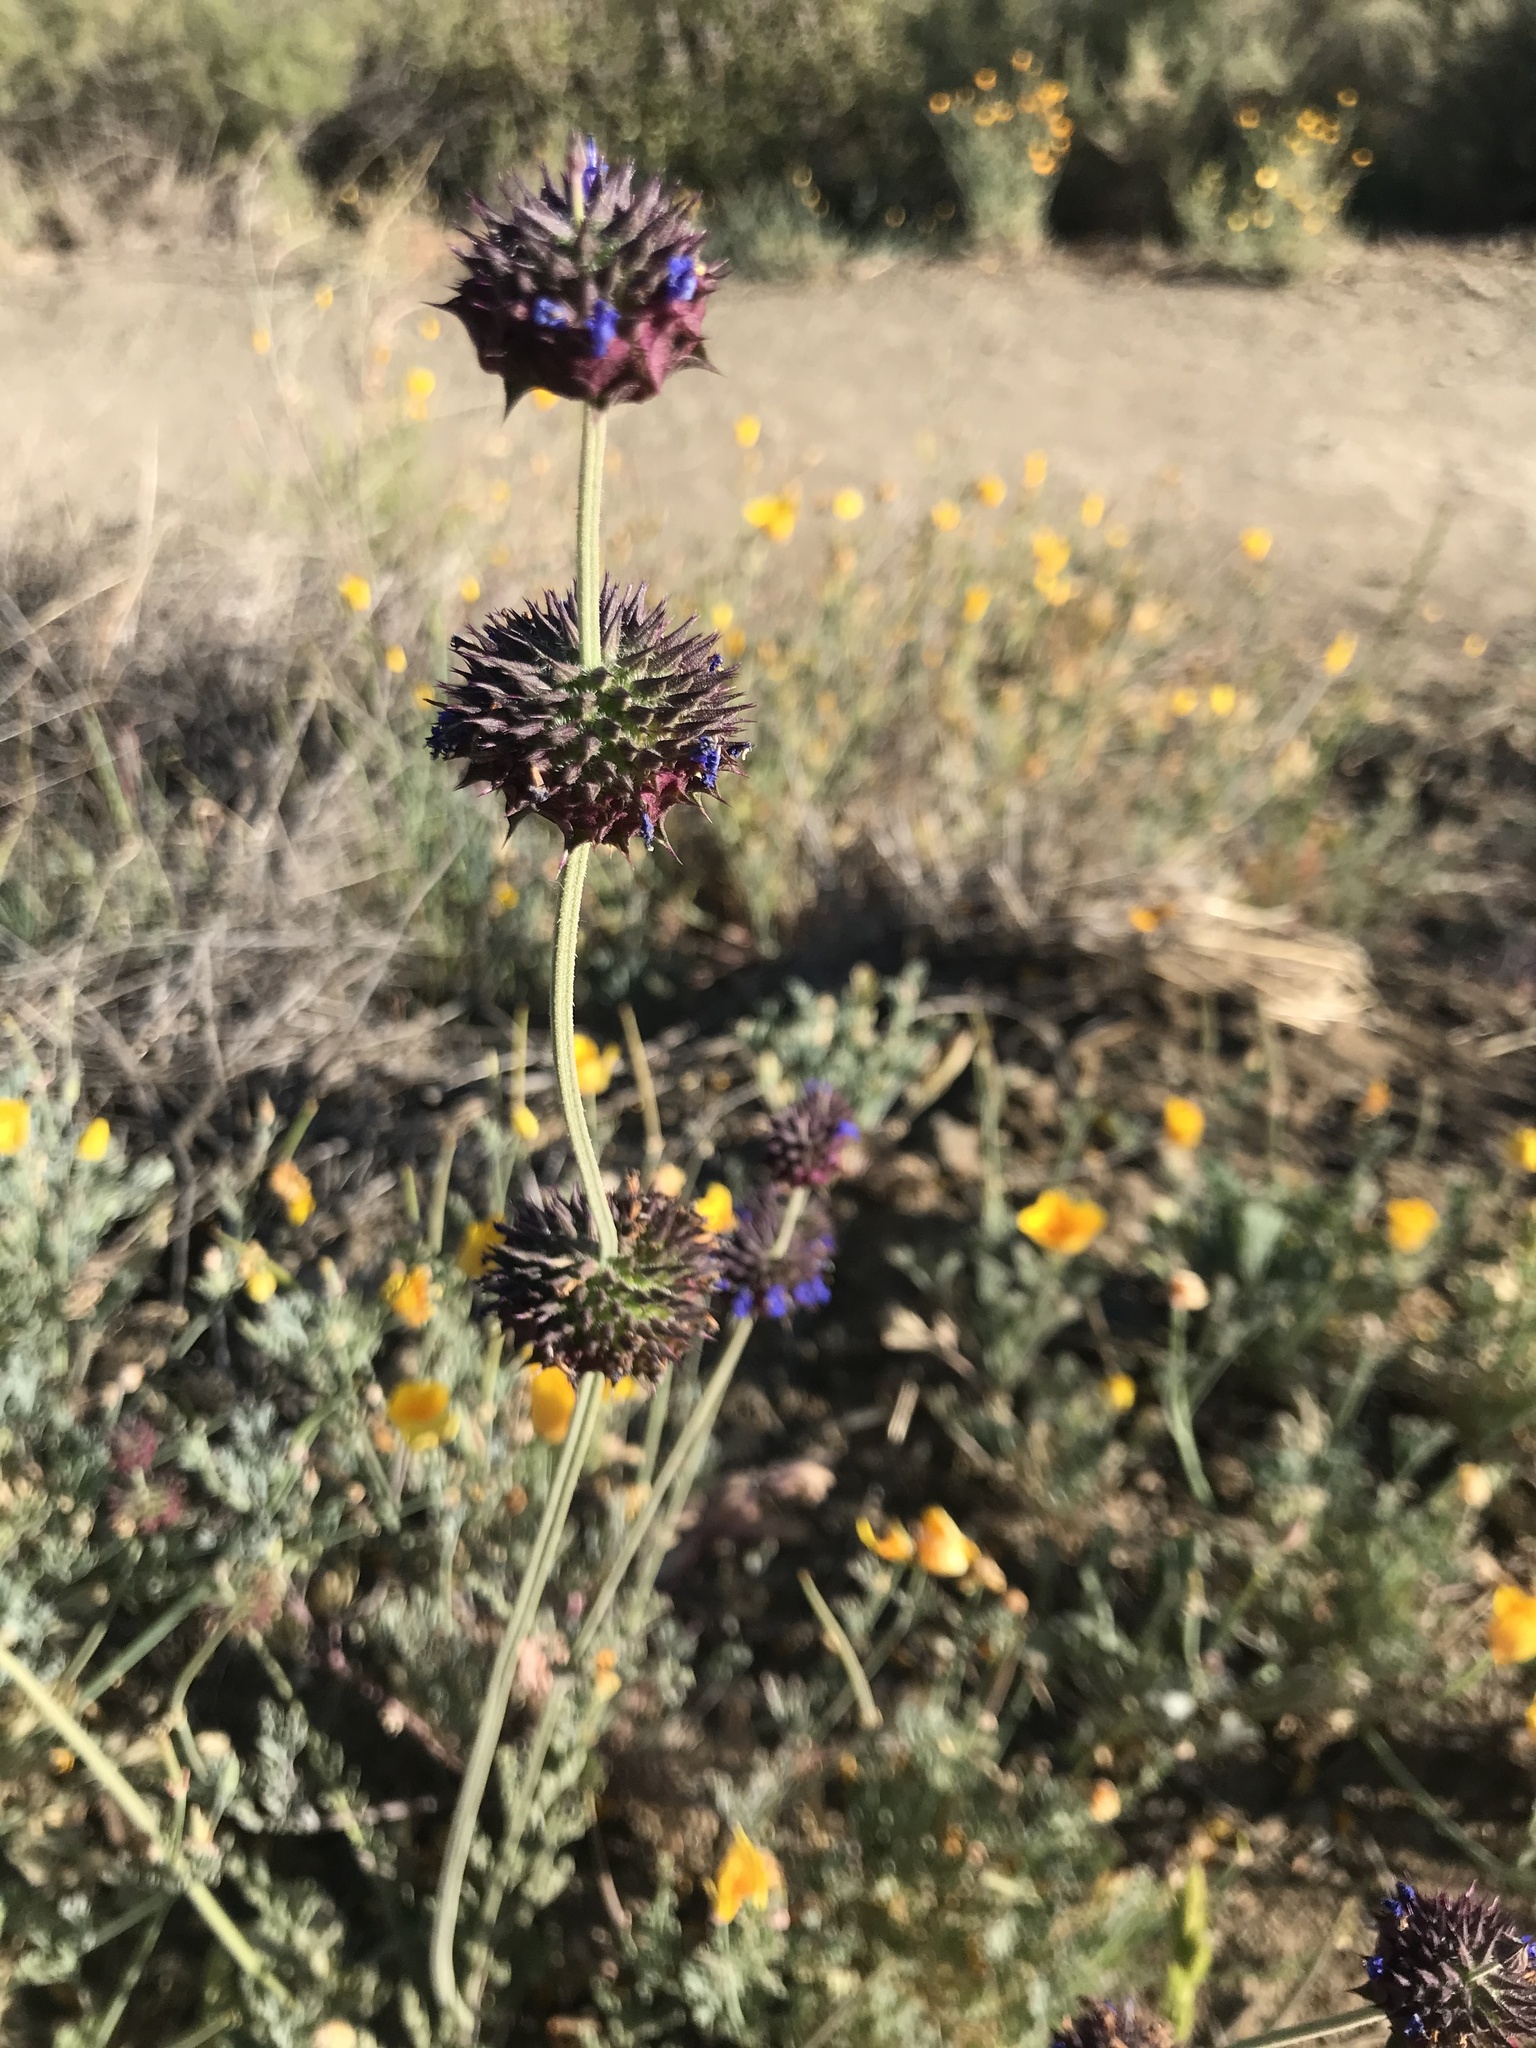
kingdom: Plantae
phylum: Tracheophyta
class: Magnoliopsida
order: Lamiales
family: Lamiaceae
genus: Salvia
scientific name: Salvia columbariae
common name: Chia
